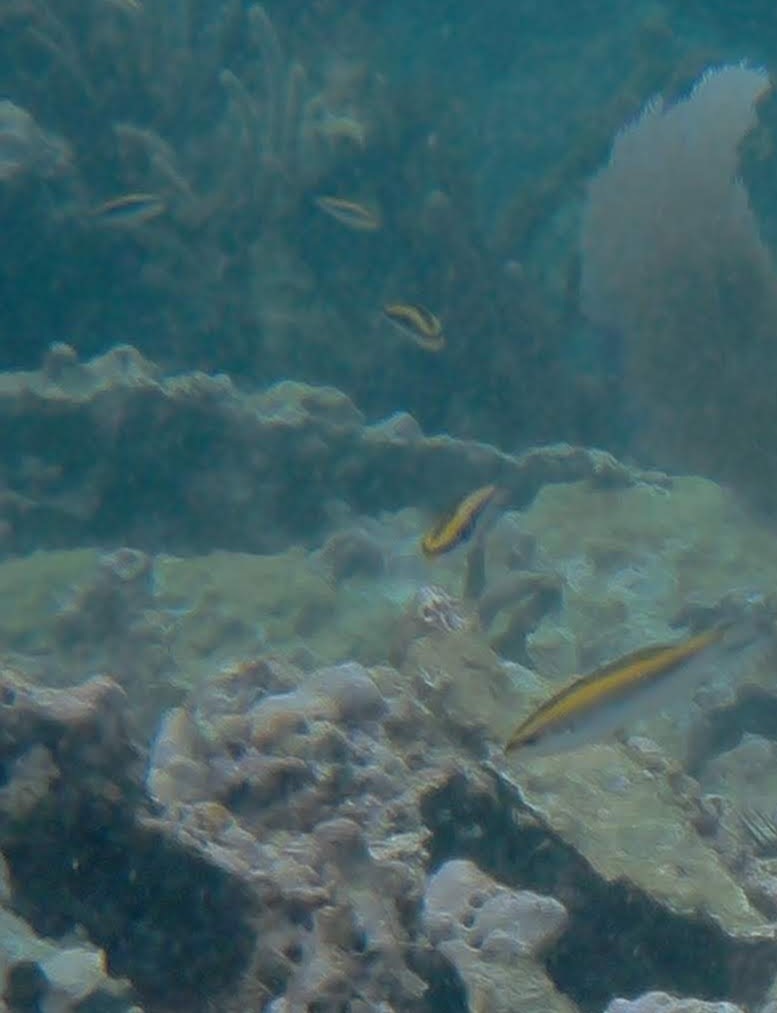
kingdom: Animalia
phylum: Chordata
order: Perciformes
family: Labridae
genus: Thalassoma
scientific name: Thalassoma bifasciatum
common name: Bluehead wrasse
